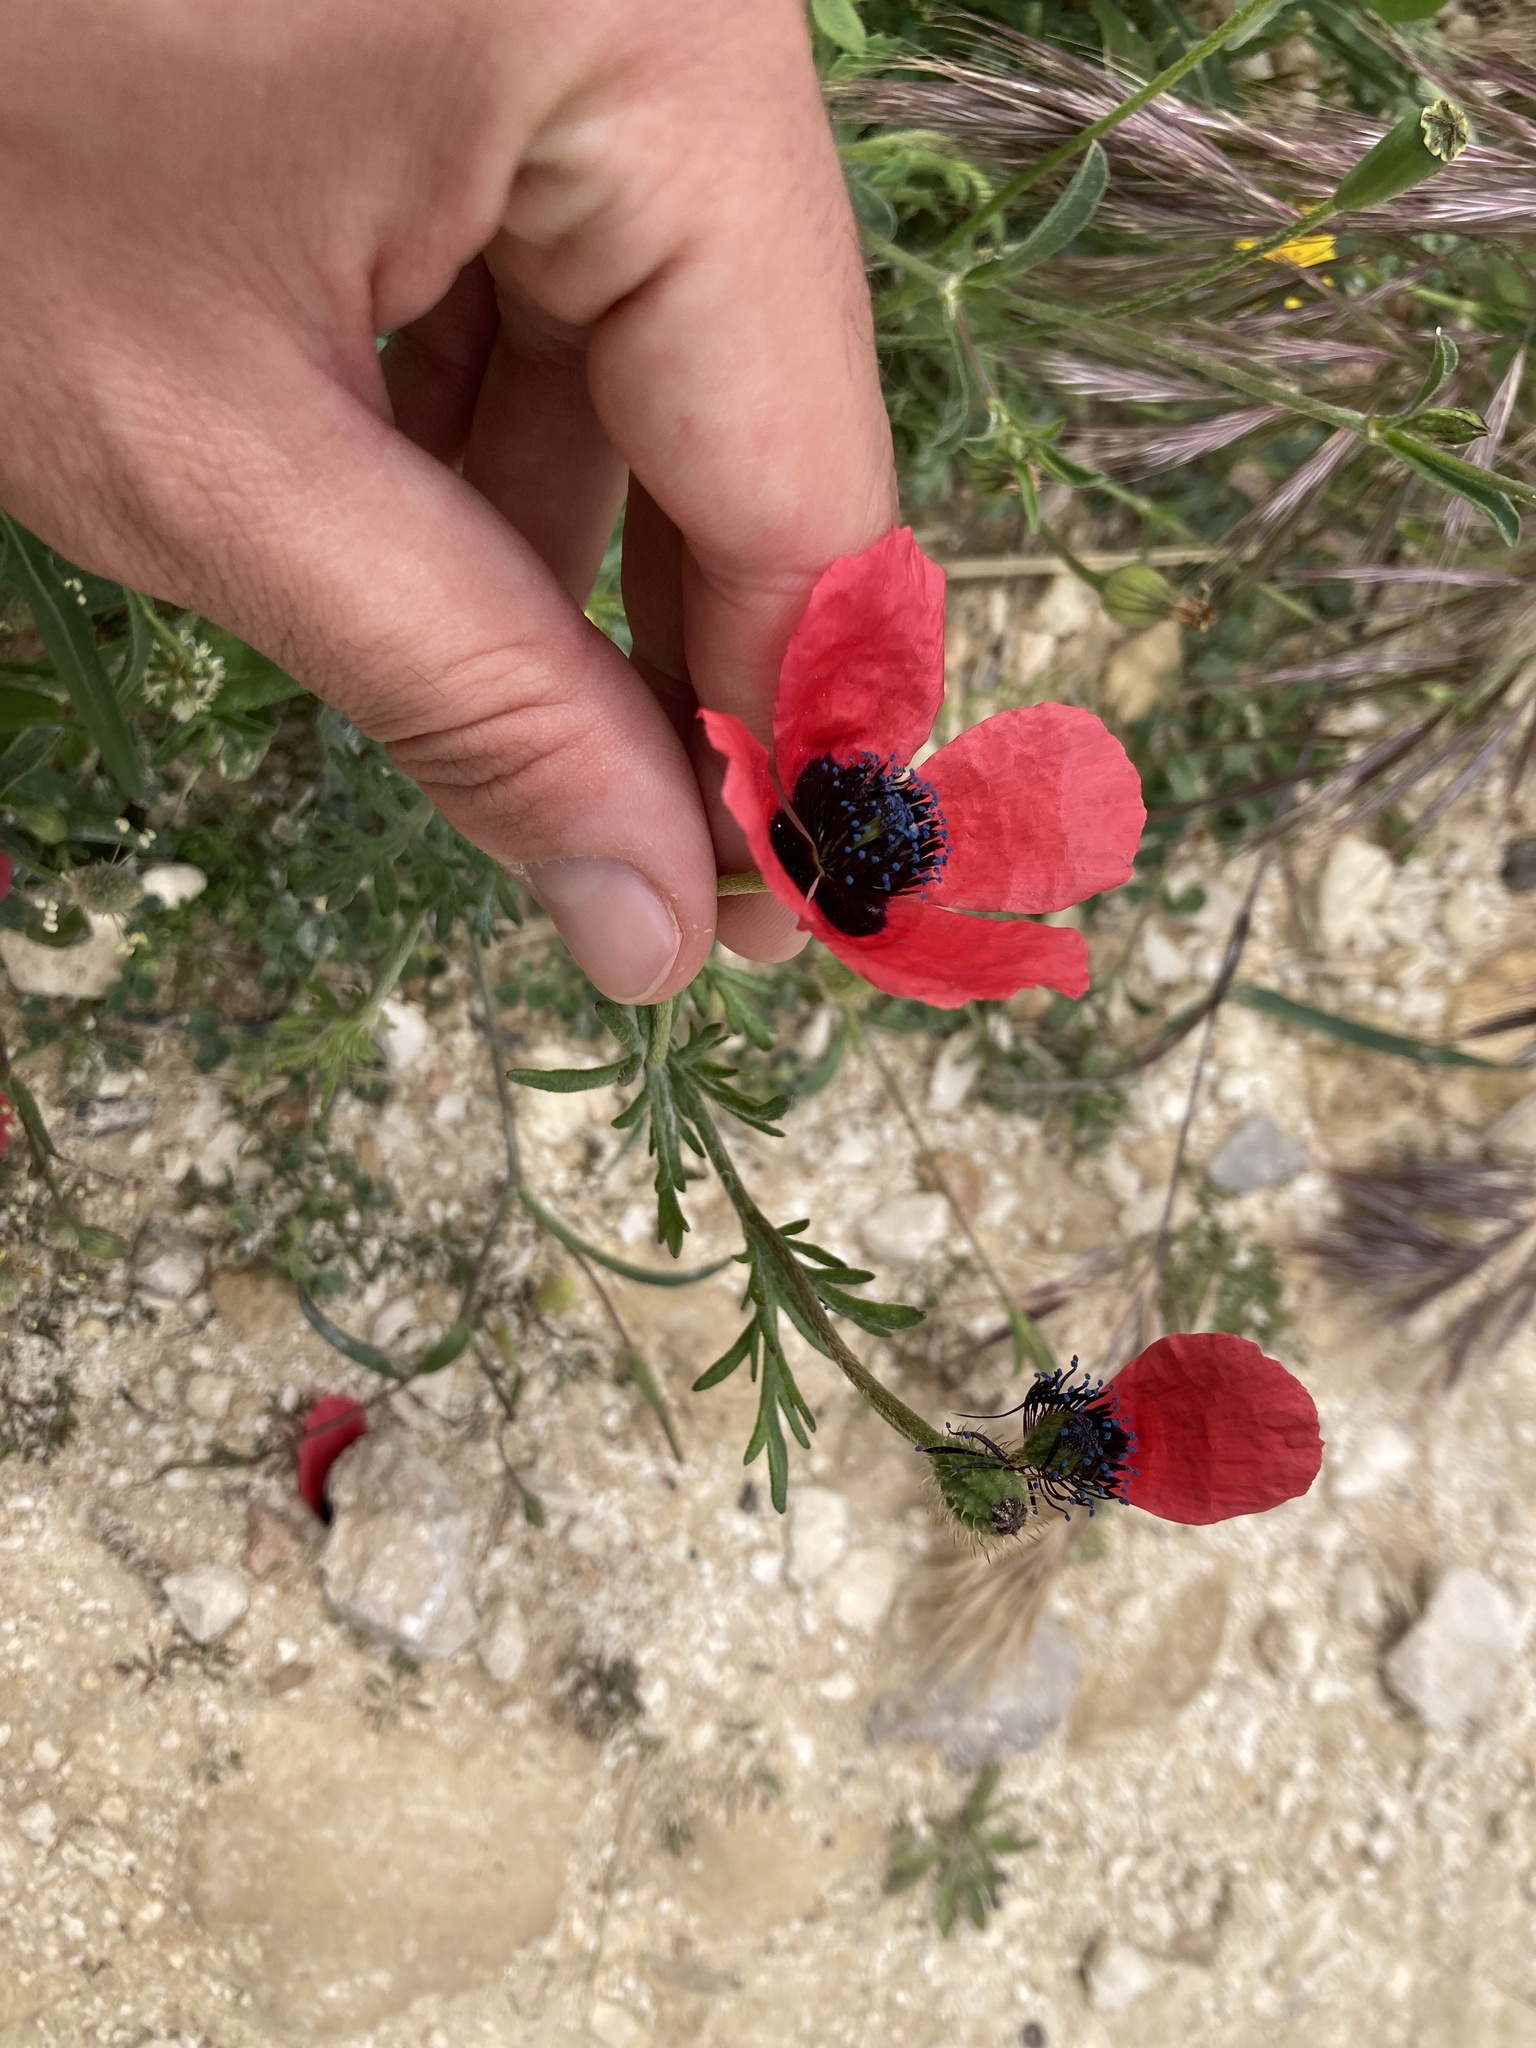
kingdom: Plantae
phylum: Tracheophyta
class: Magnoliopsida
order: Ranunculales
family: Papaveraceae
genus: Roemeria
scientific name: Roemeria hispida
